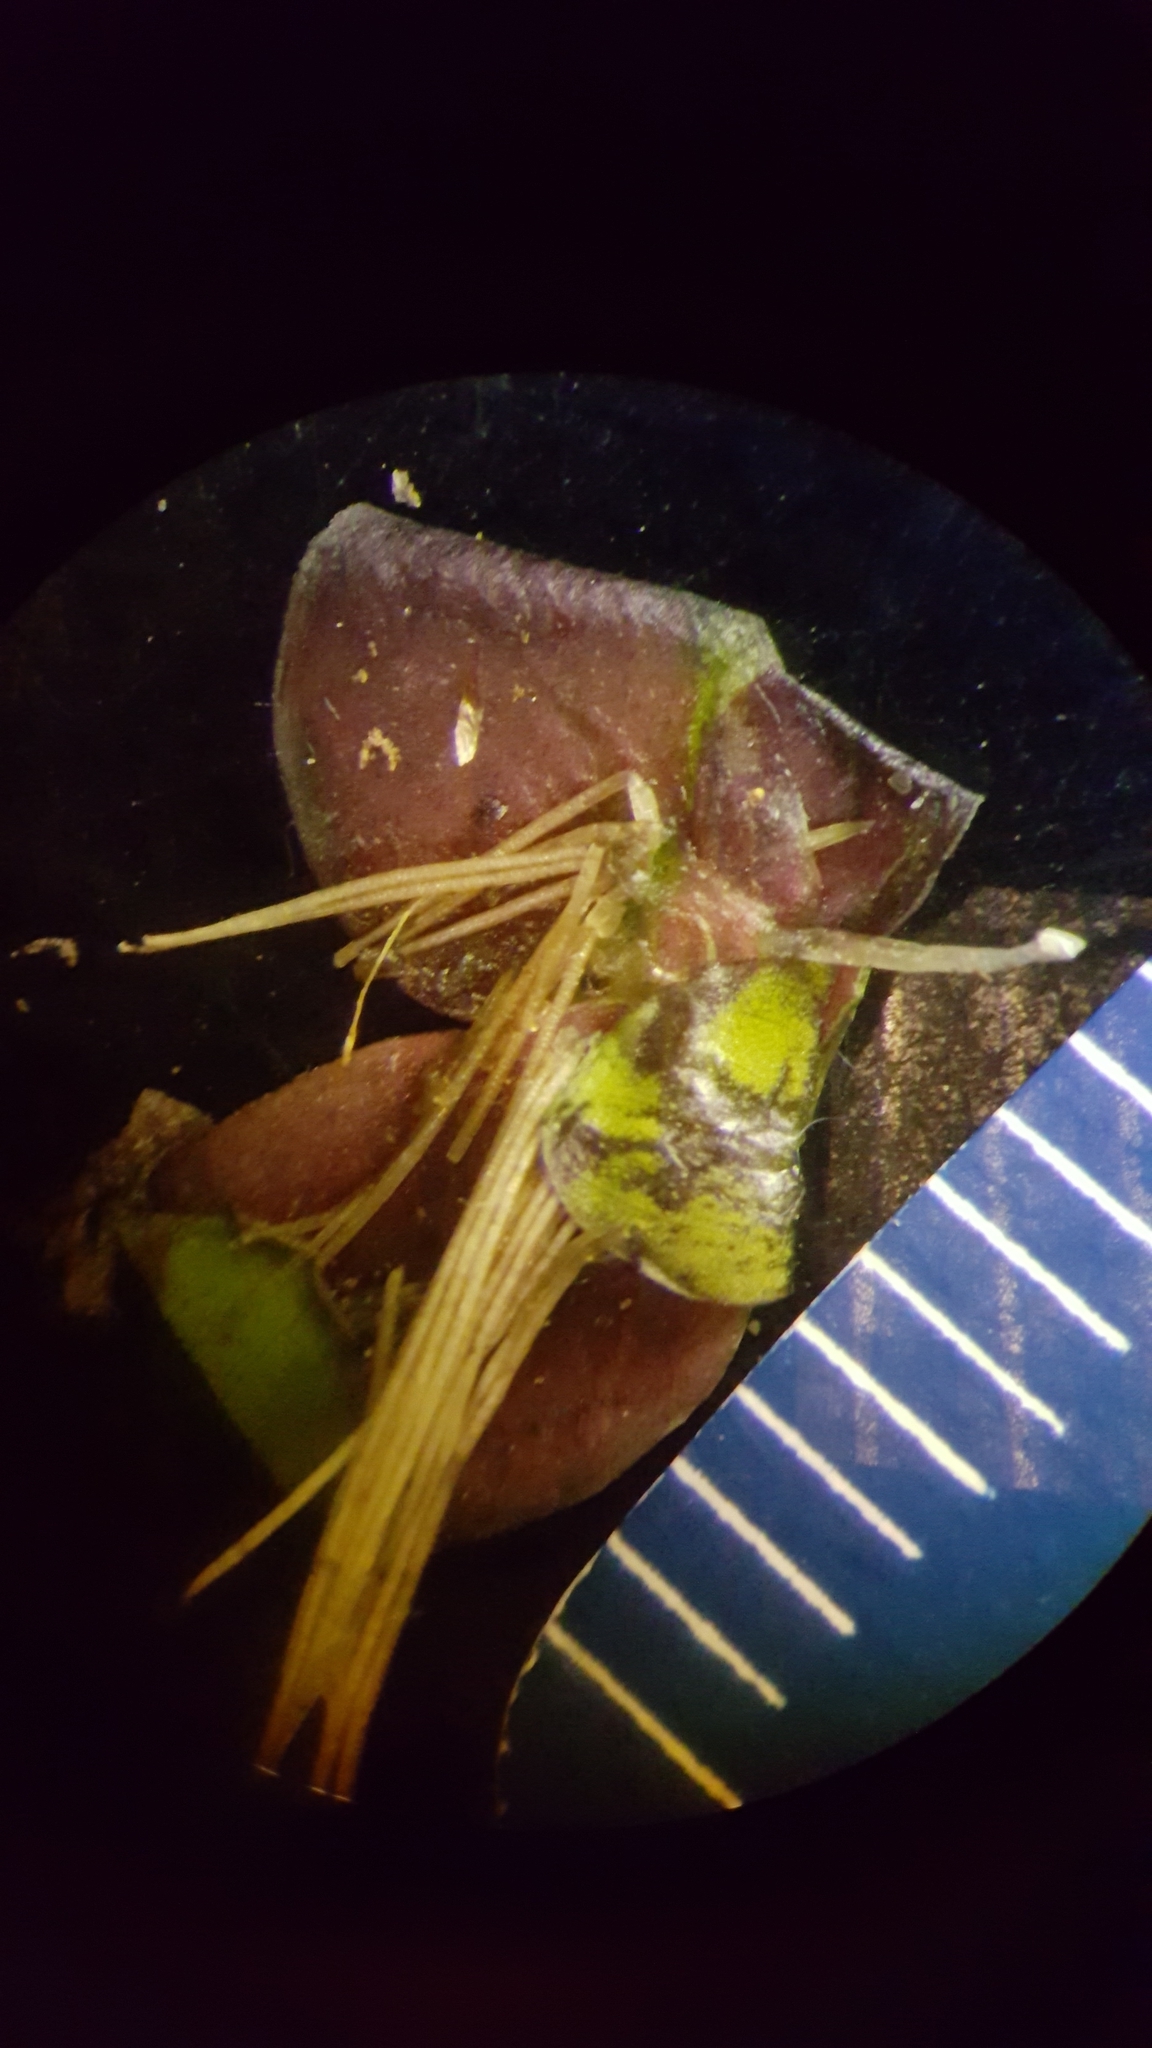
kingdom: Plantae
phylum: Tracheophyta
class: Liliopsida
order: Alismatales
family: Araceae
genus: Spirodela
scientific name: Spirodela polyrhiza
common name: Great duckweed
